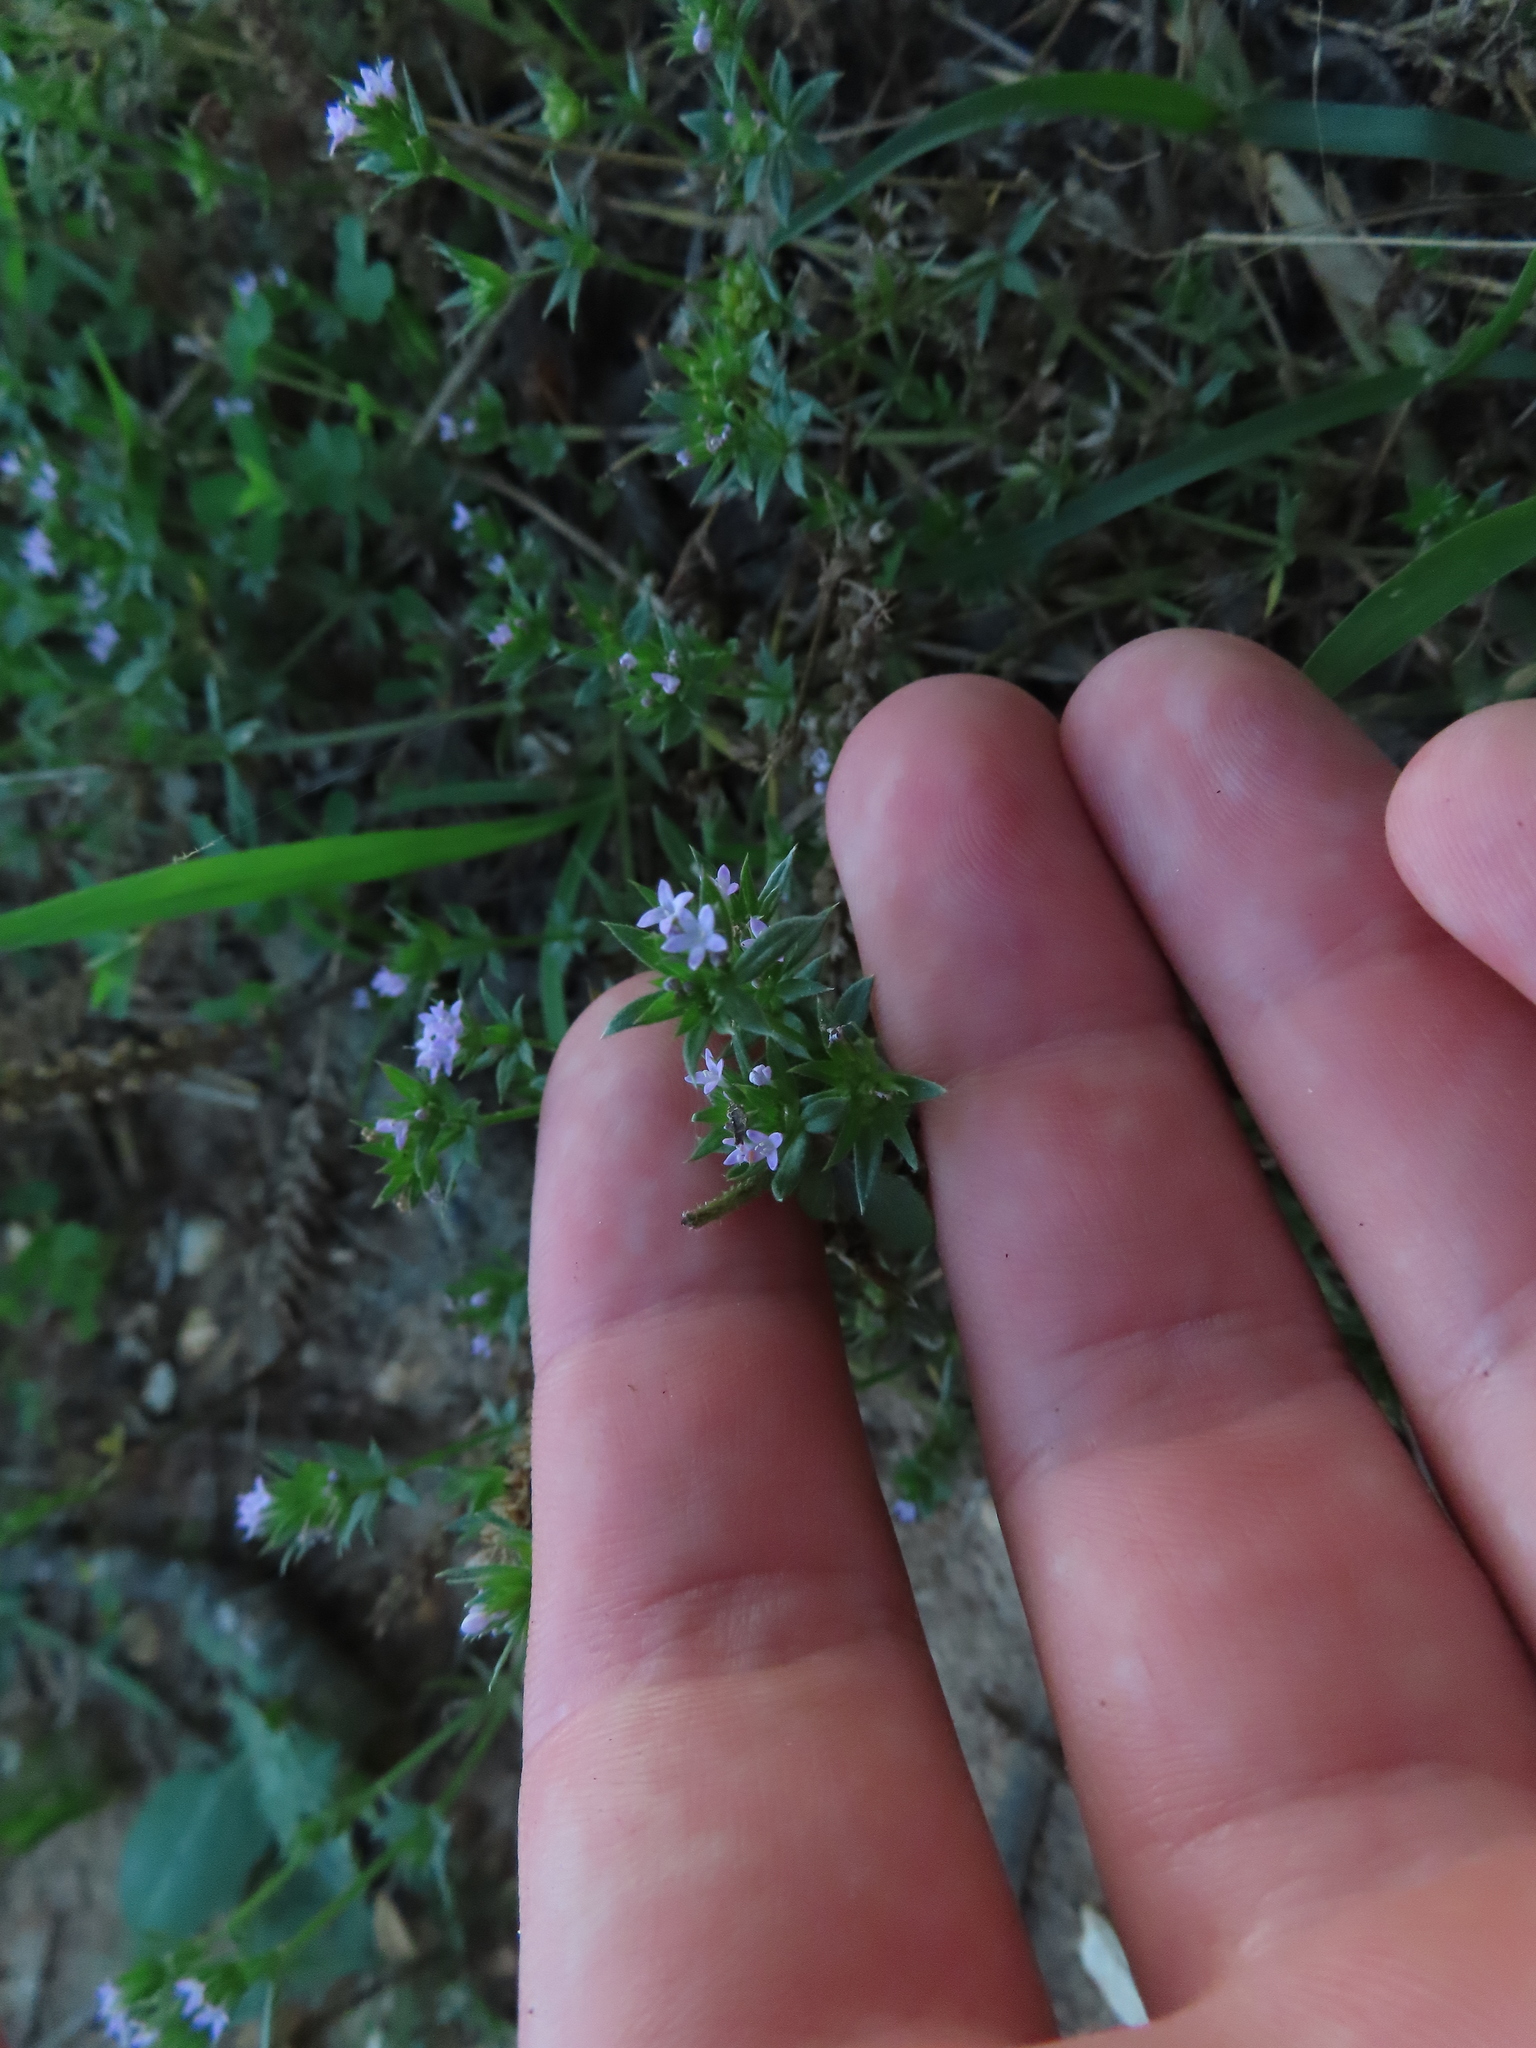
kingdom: Plantae
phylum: Tracheophyta
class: Magnoliopsida
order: Gentianales
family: Rubiaceae
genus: Sherardia
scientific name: Sherardia arvensis
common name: Field madder
